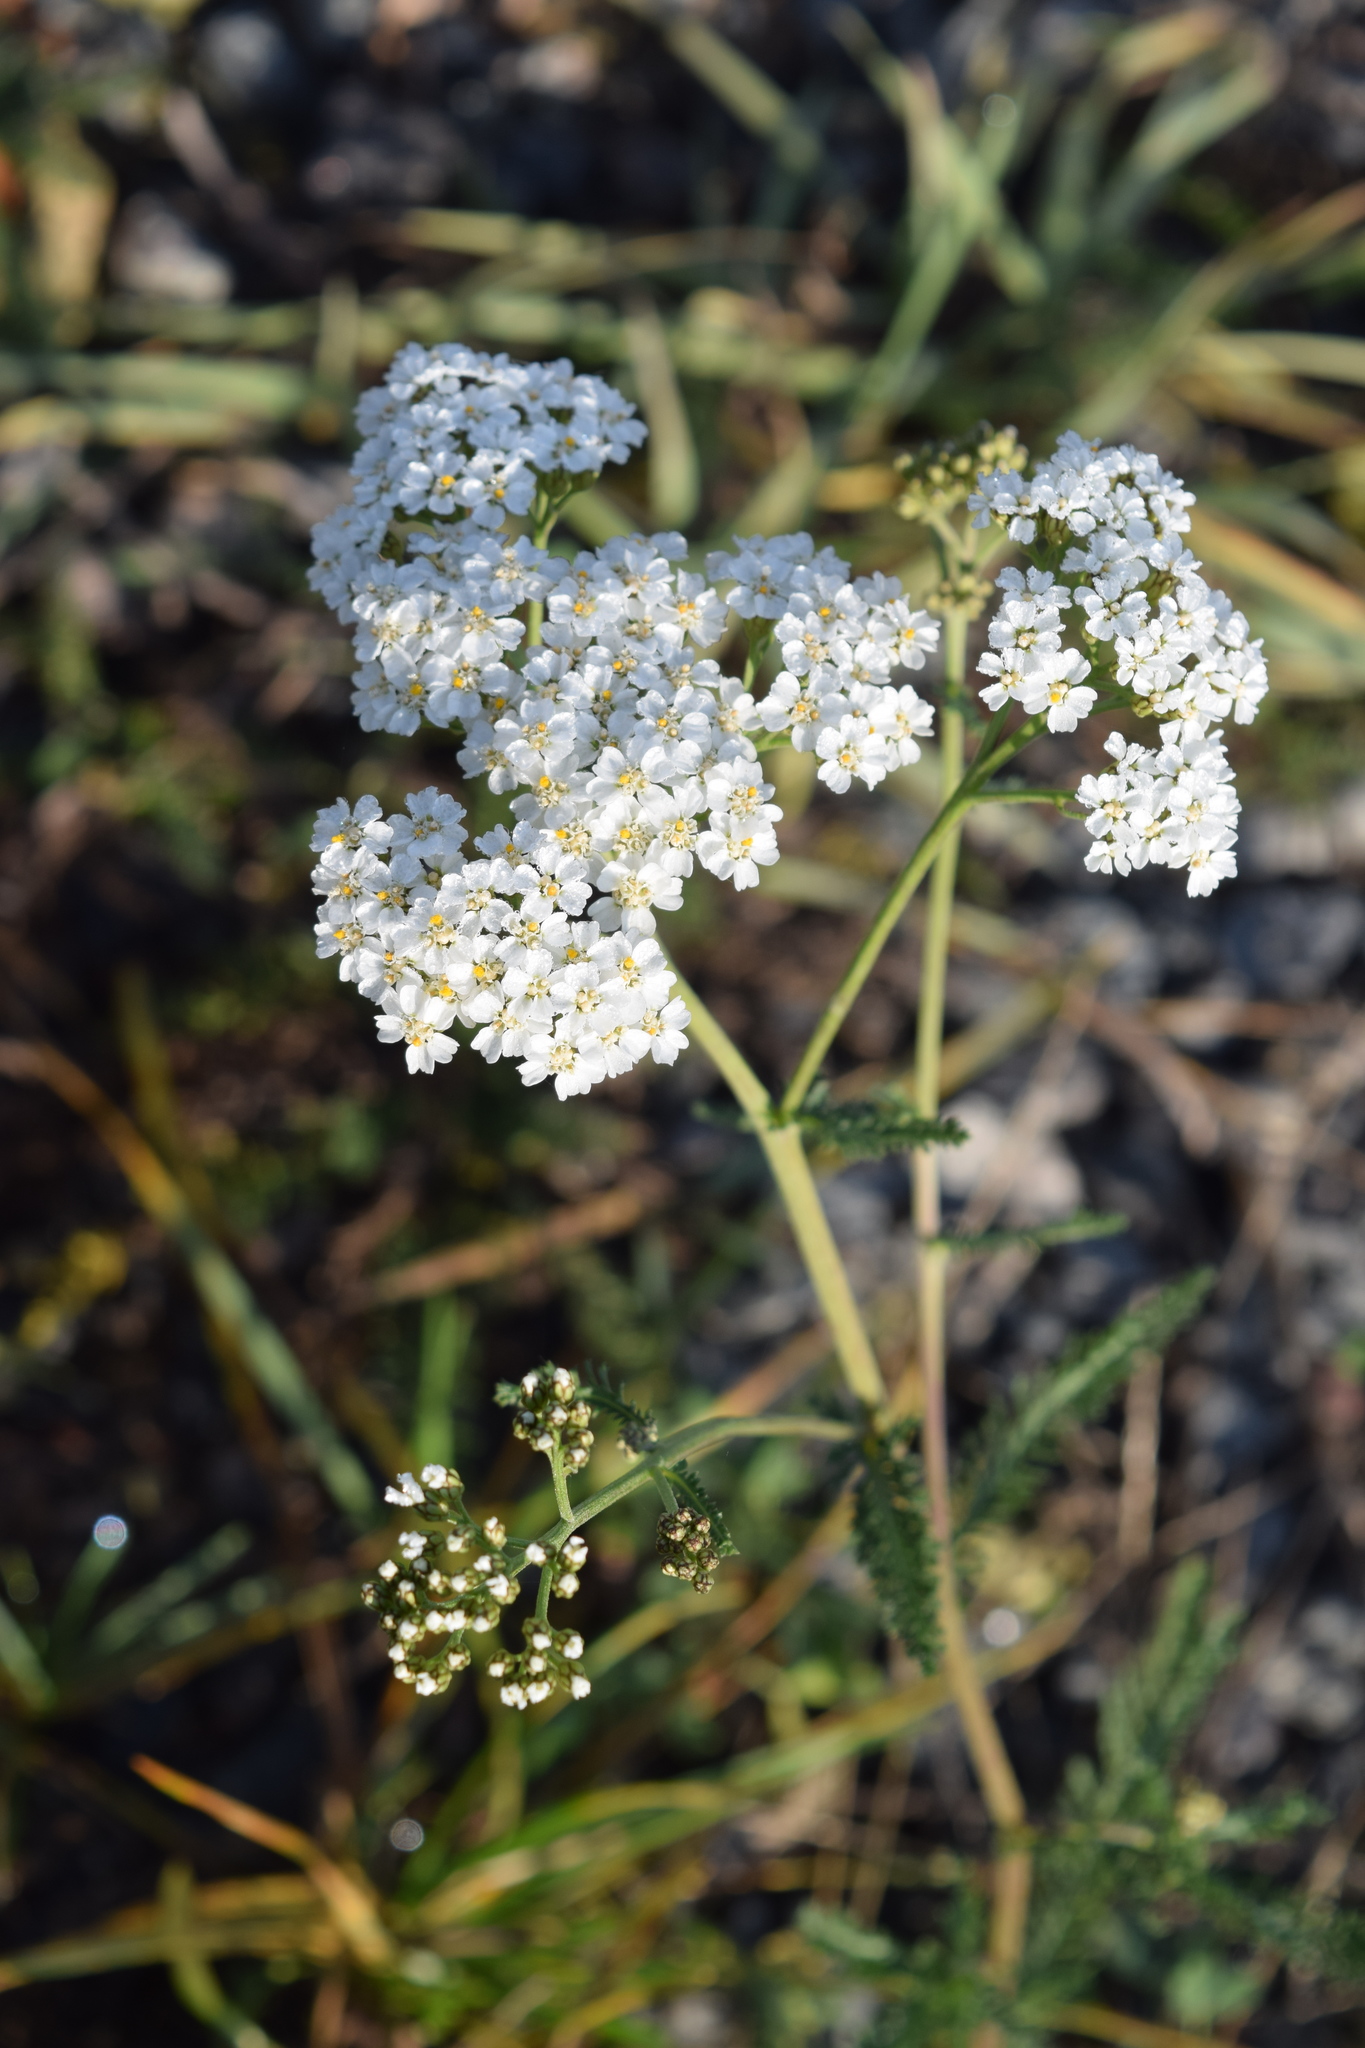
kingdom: Plantae
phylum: Tracheophyta
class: Magnoliopsida
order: Asterales
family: Asteraceae
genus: Achillea
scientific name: Achillea millefolium
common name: Yarrow
